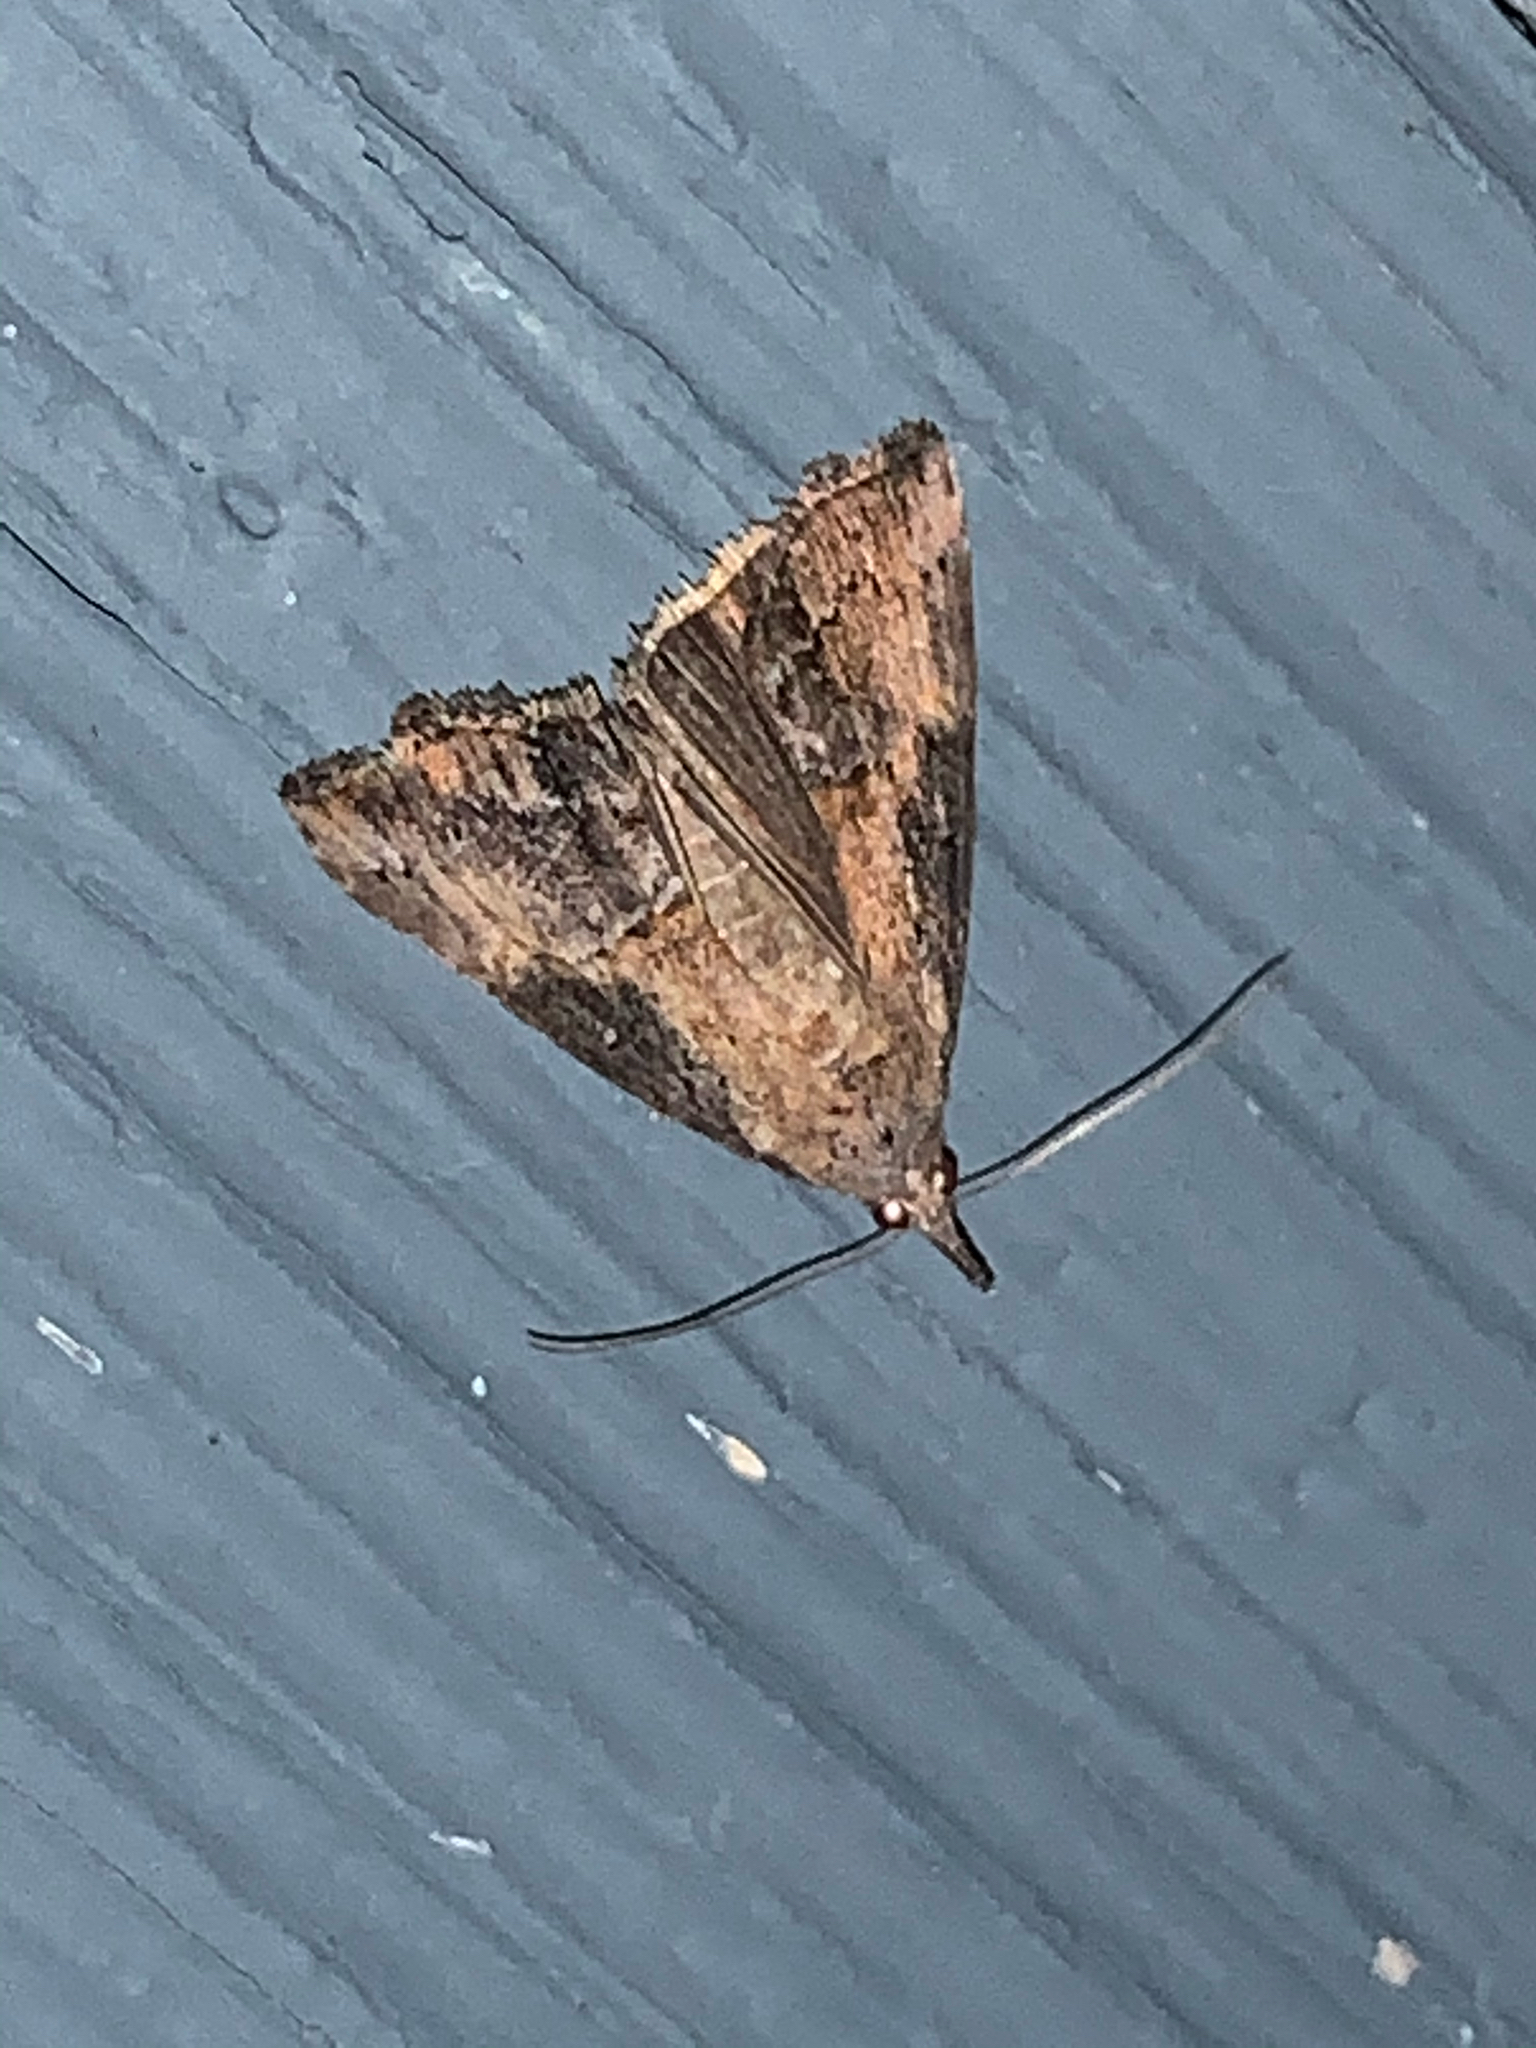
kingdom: Animalia
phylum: Arthropoda
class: Insecta
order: Lepidoptera
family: Erebidae
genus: Hypena
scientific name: Hypena scabra
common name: Green cloverworm
